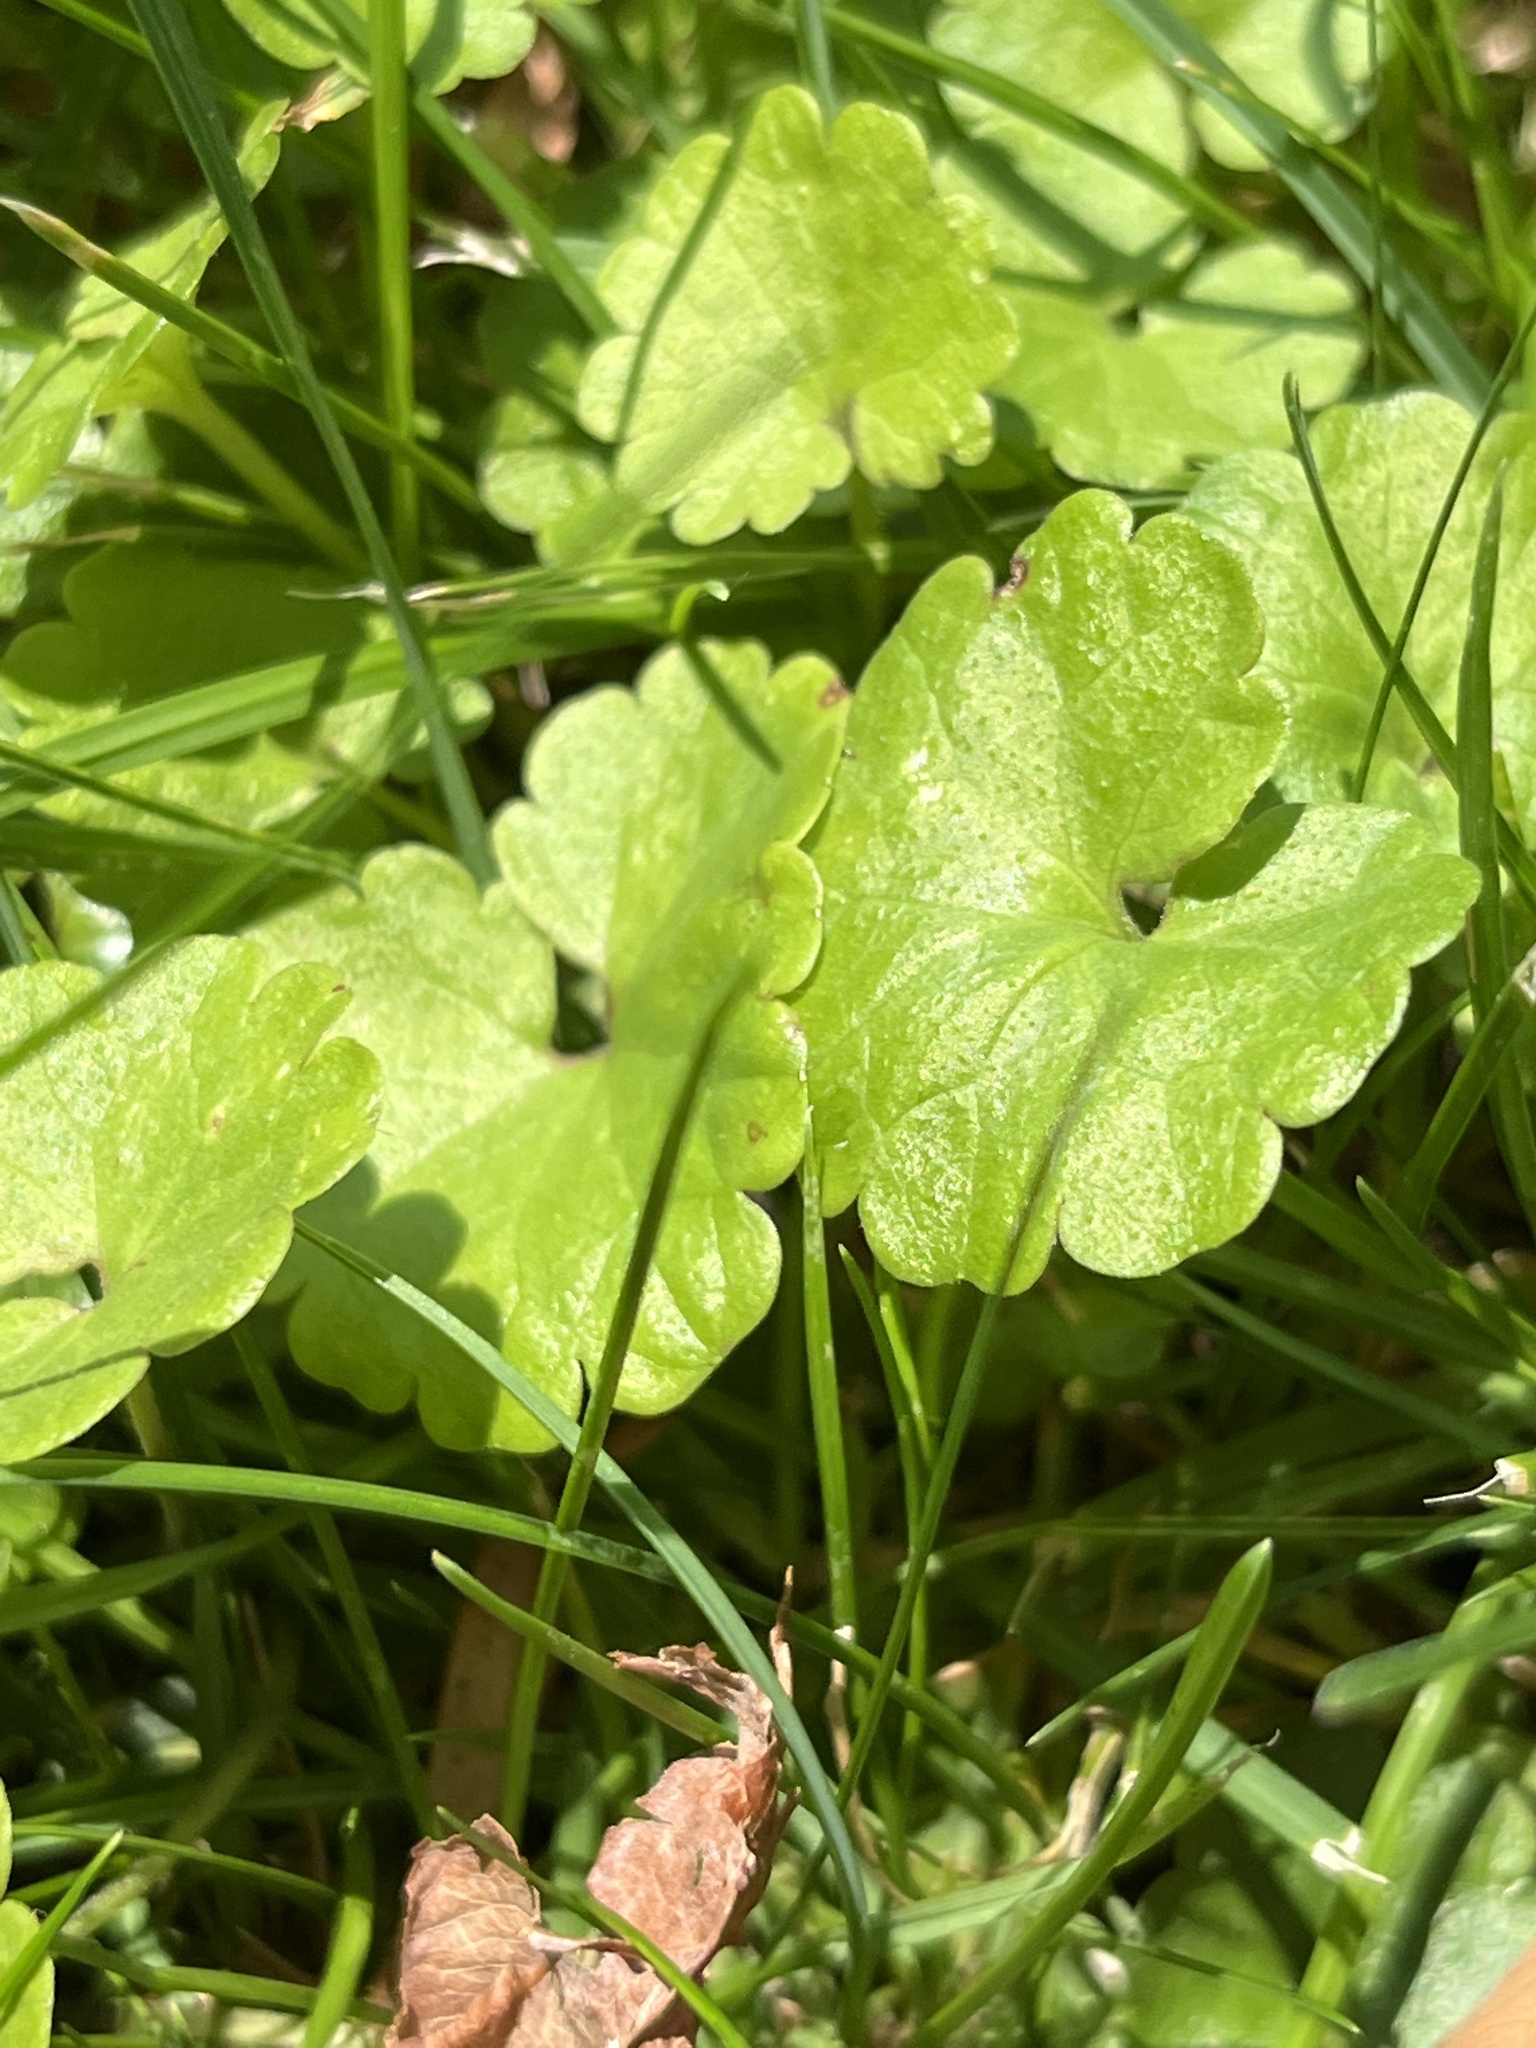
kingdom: Plantae
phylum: Tracheophyta
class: Magnoliopsida
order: Lamiales
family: Lamiaceae
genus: Glechoma
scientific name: Glechoma hederacea
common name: Ground ivy
